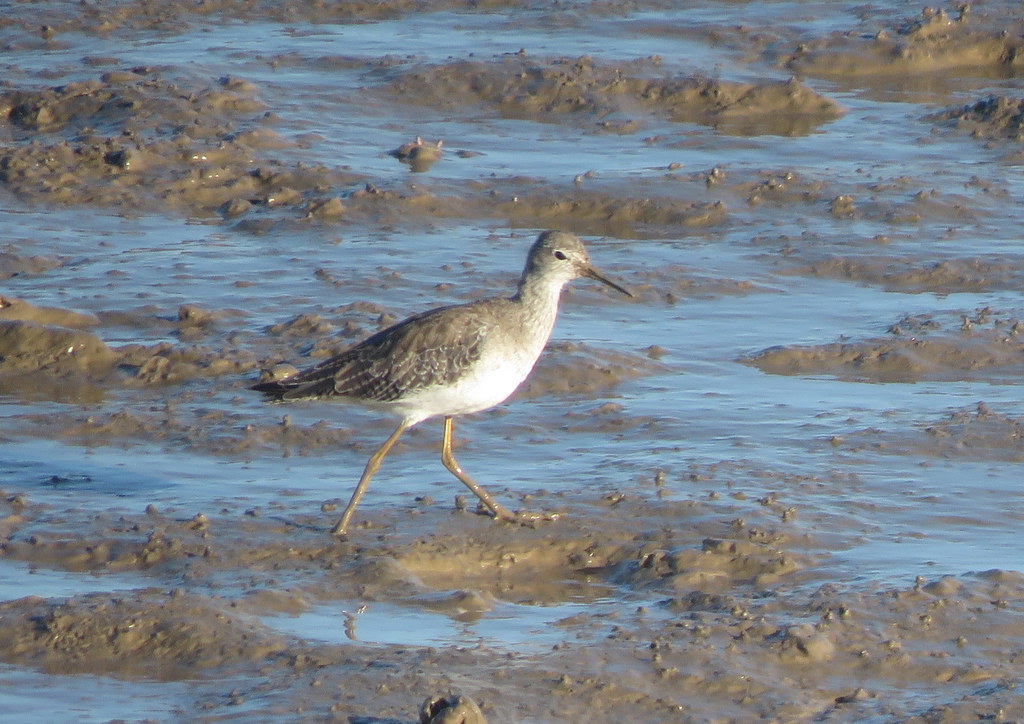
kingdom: Animalia
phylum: Chordata
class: Aves
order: Charadriiformes
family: Scolopacidae
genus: Tringa
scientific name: Tringa flavipes
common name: Lesser yellowlegs
